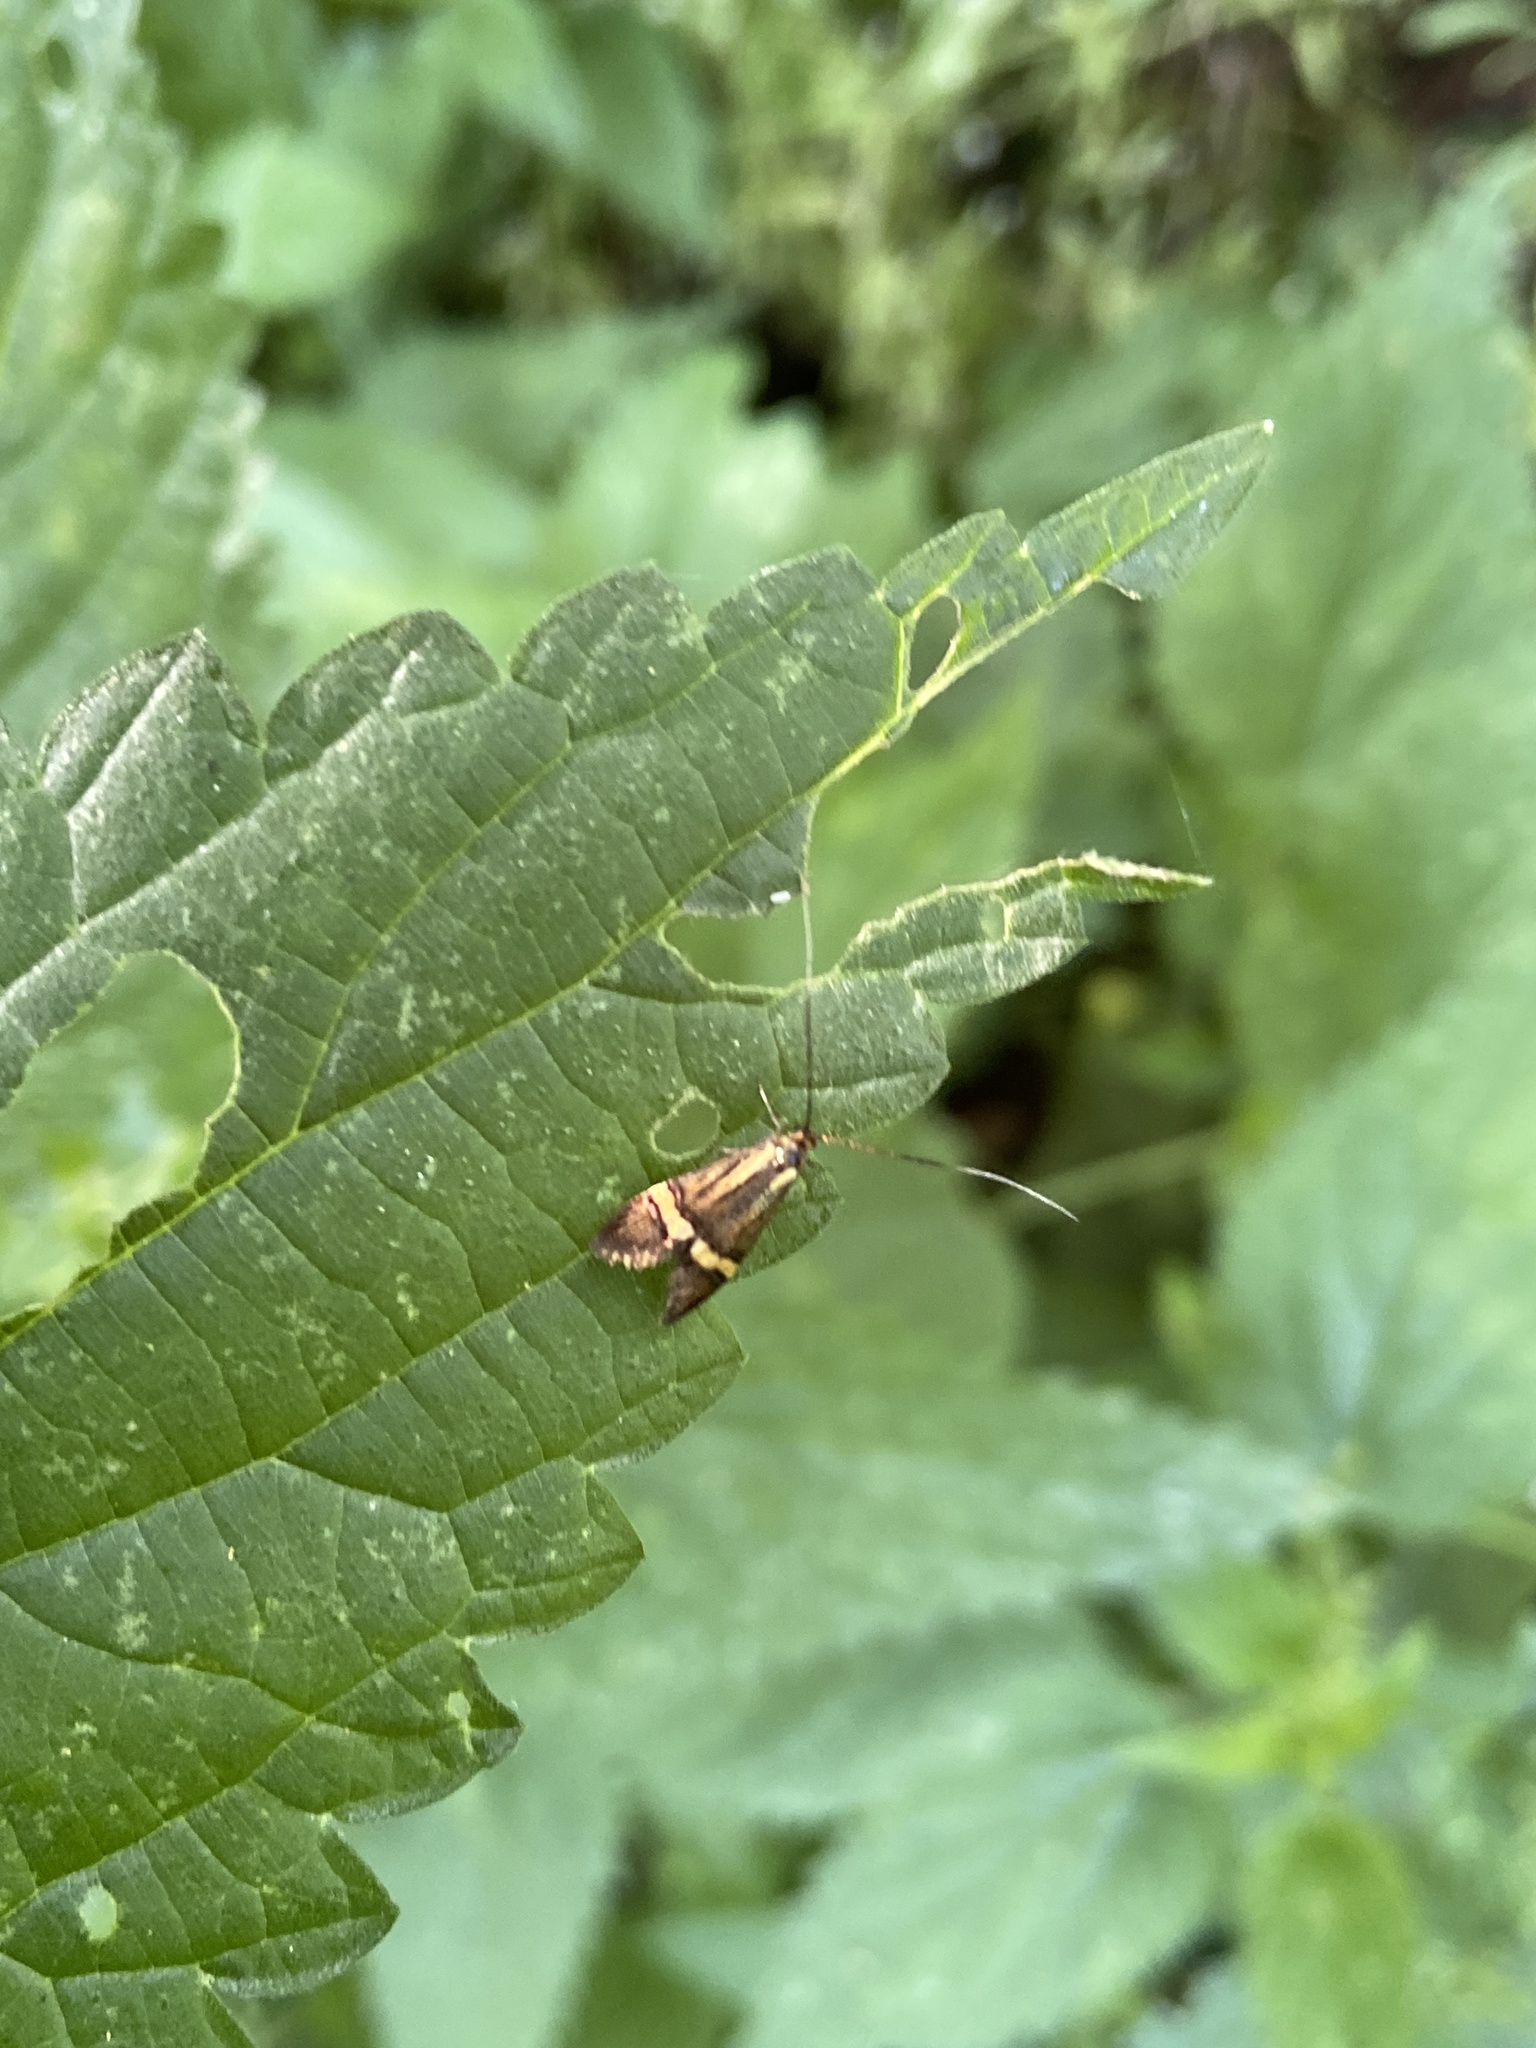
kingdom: Animalia
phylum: Arthropoda
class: Insecta
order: Lepidoptera
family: Adelidae
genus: Nemophora
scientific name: Nemophora degeerella
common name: Yellow-barred long-horn
